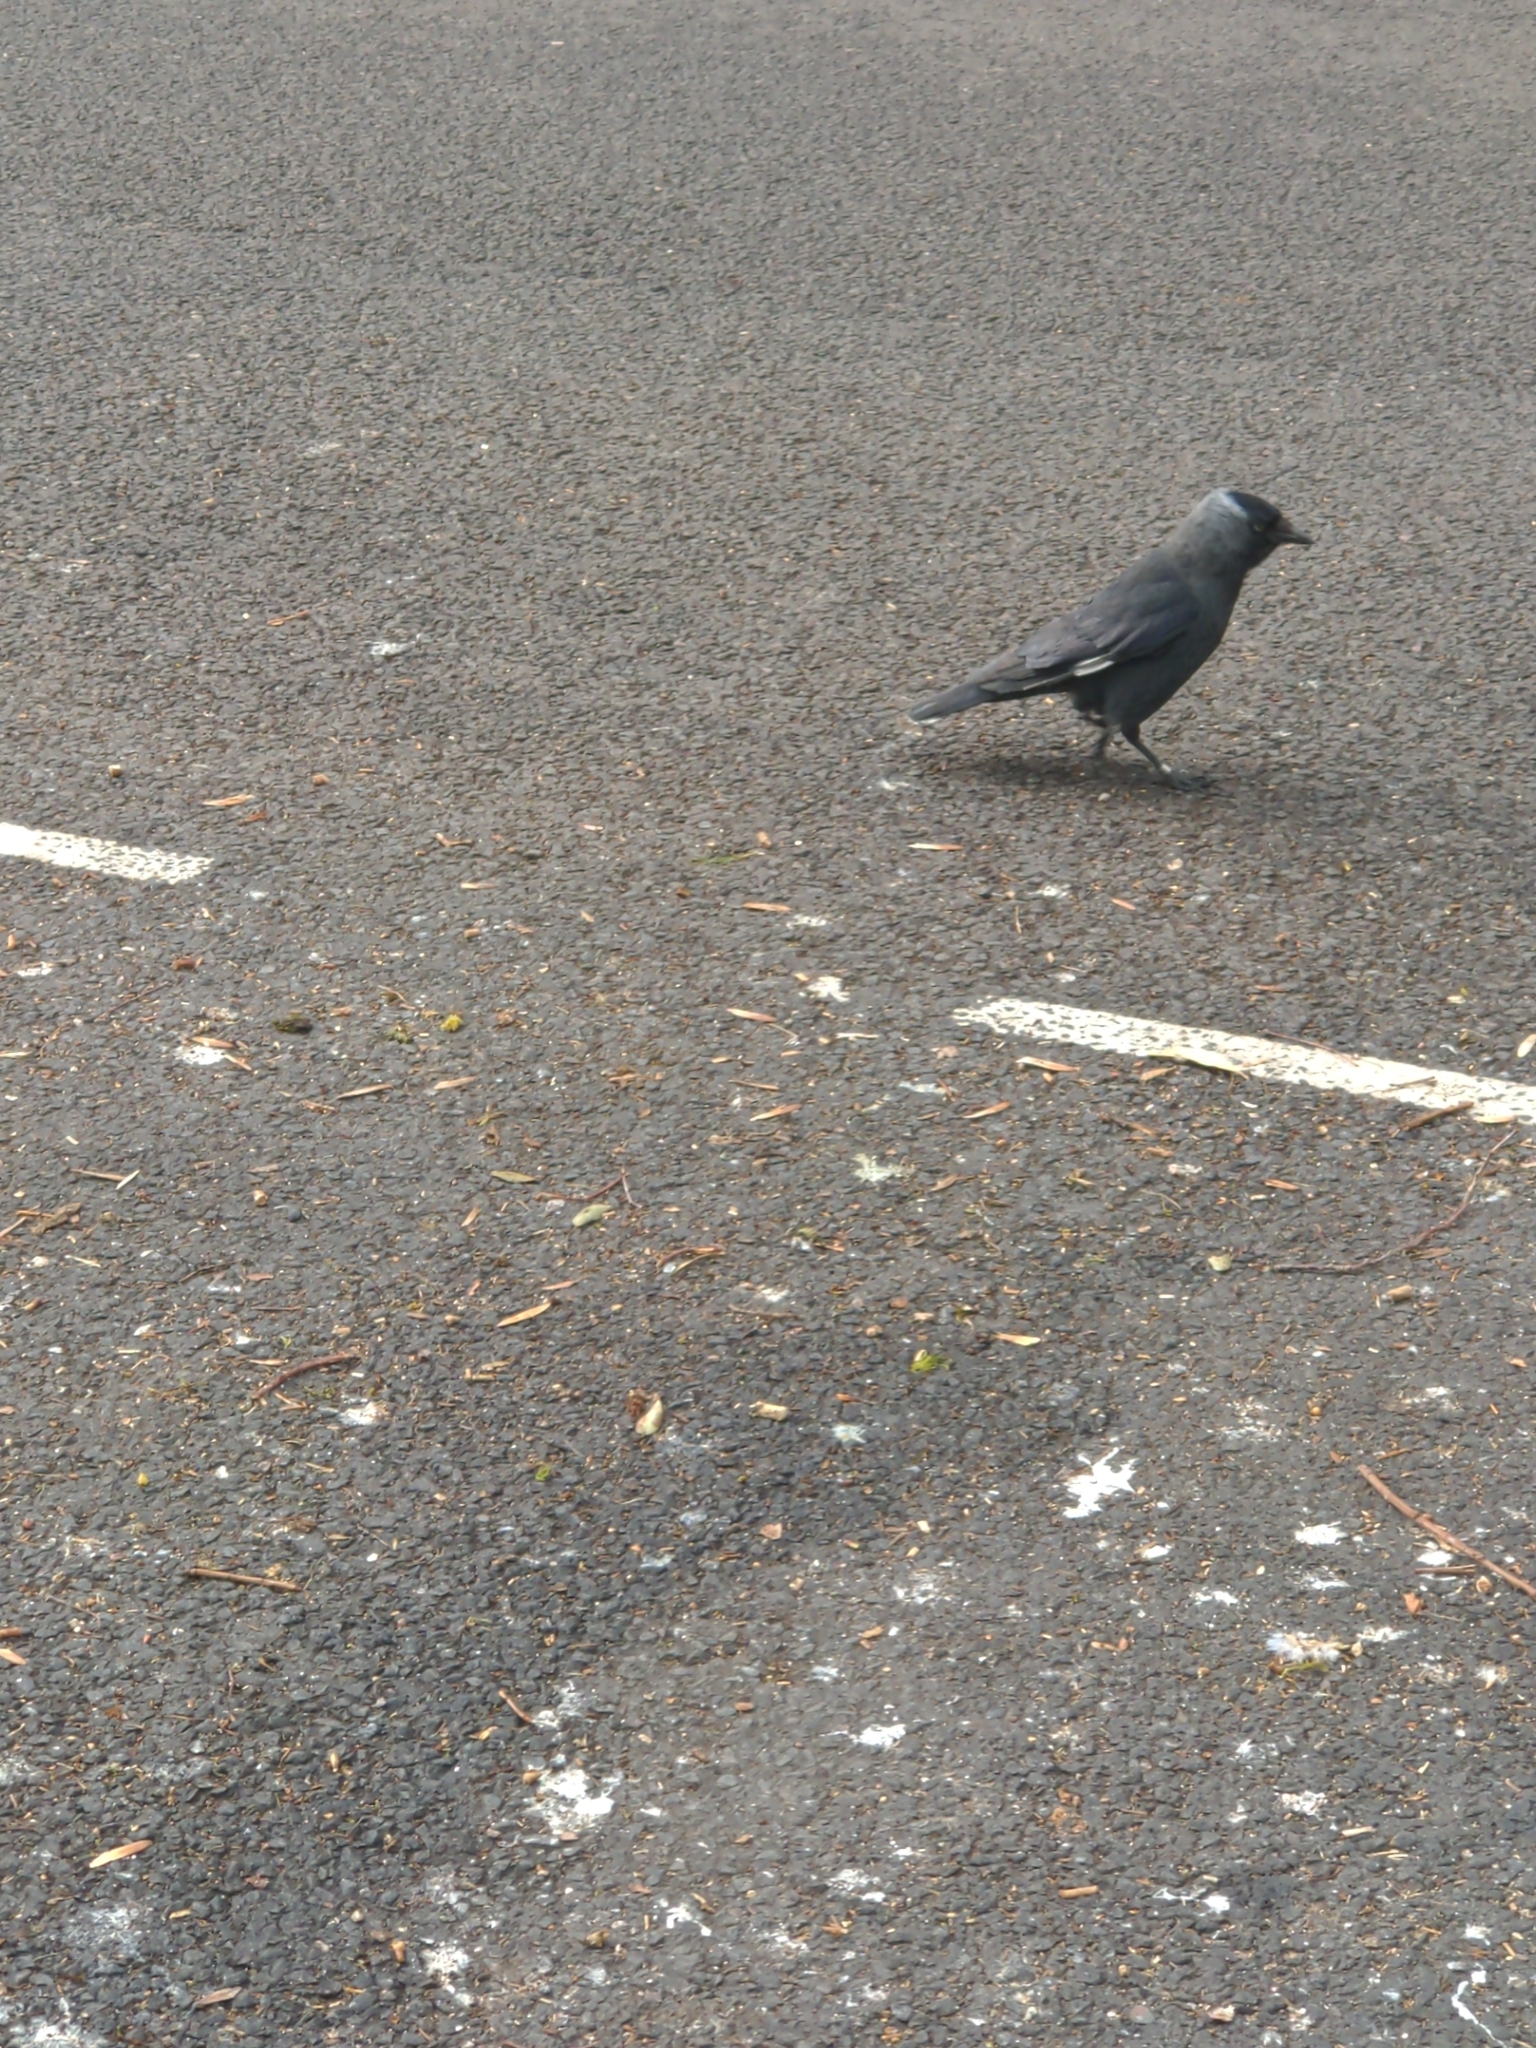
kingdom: Animalia
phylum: Chordata
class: Aves
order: Passeriformes
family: Corvidae
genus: Coloeus
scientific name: Coloeus monedula
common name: Western jackdaw
